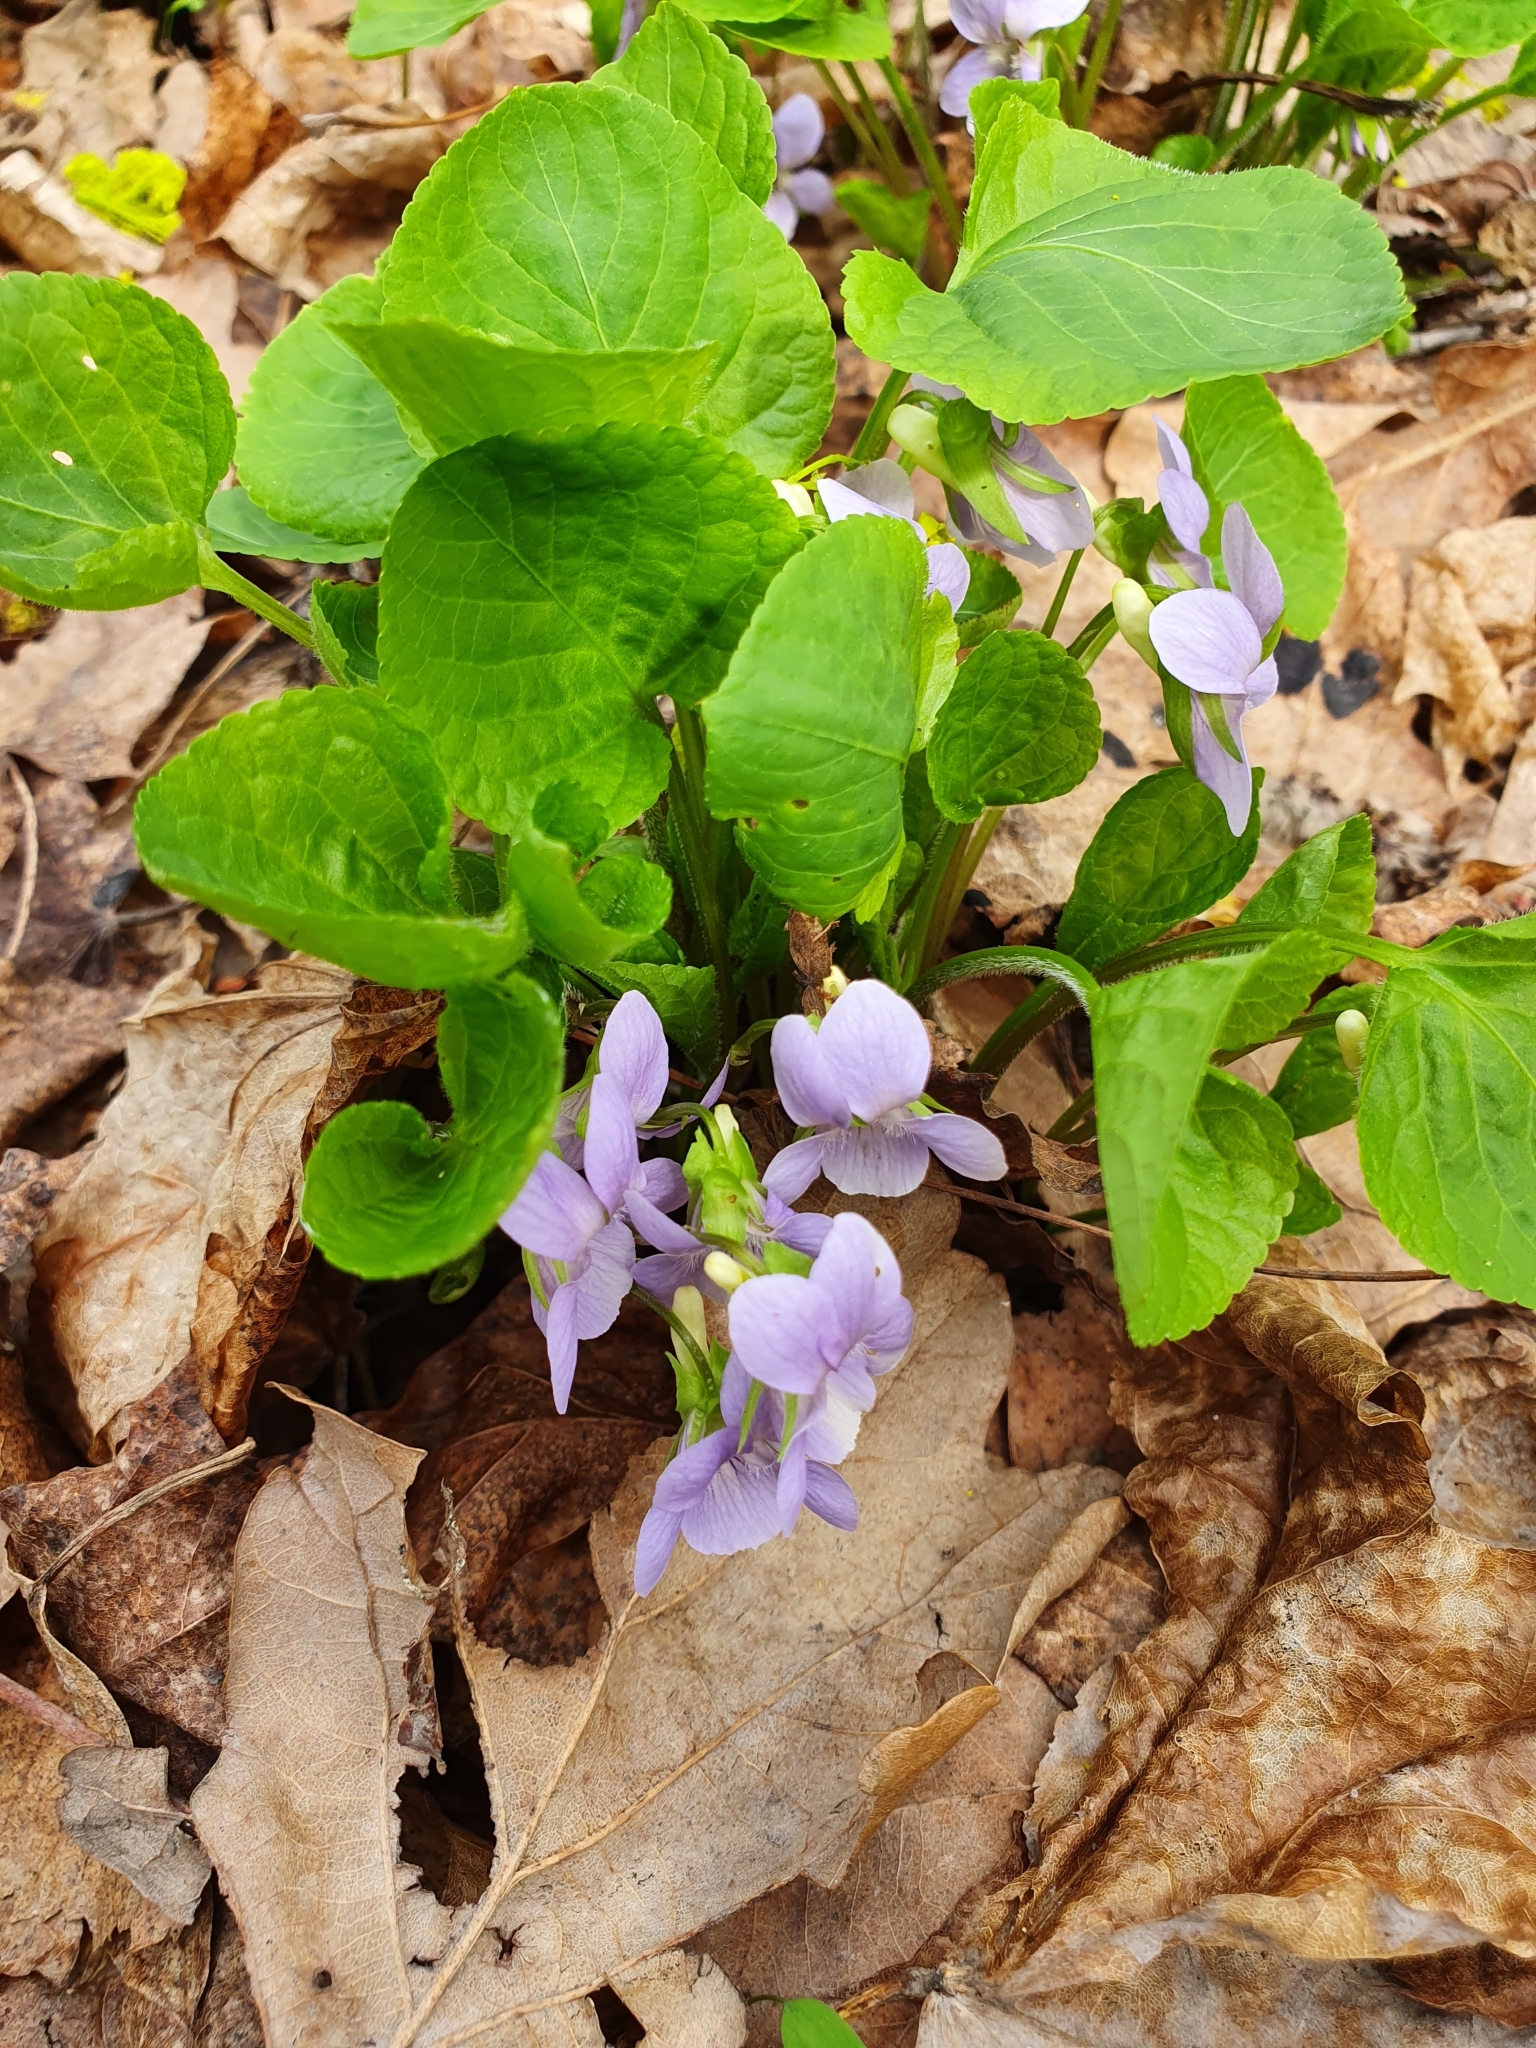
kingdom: Plantae
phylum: Tracheophyta
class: Magnoliopsida
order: Malpighiales
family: Violaceae
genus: Viola
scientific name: Viola mirabilis
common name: Wonder violet
